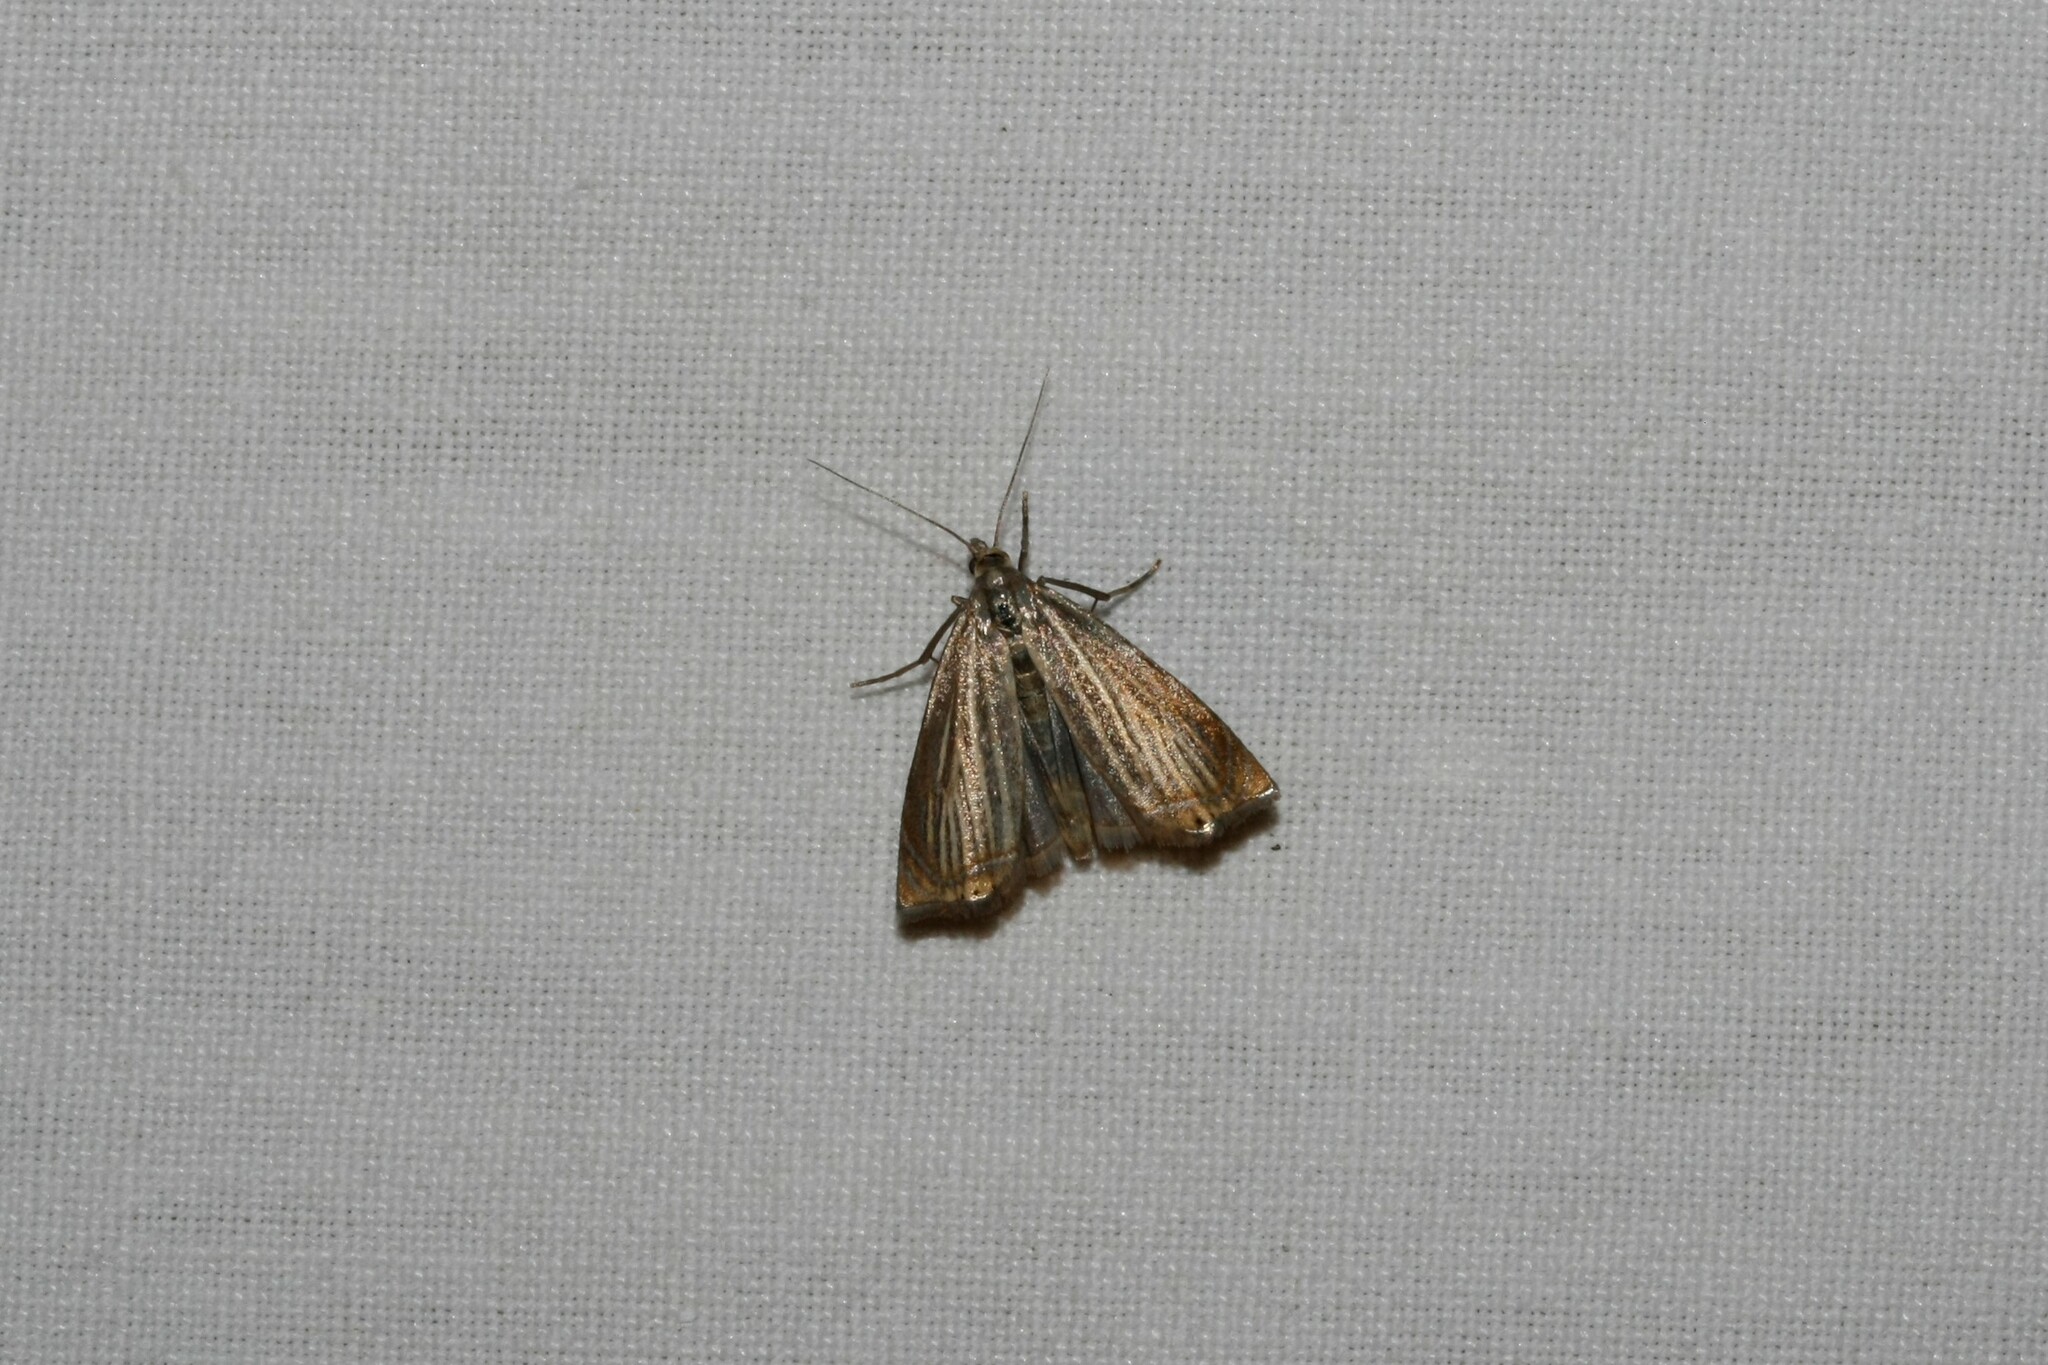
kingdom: Animalia
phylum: Arthropoda
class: Insecta
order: Lepidoptera
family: Crambidae
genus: Chrysoteuchia
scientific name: Chrysoteuchia culmella
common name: Garden grass-veneer
